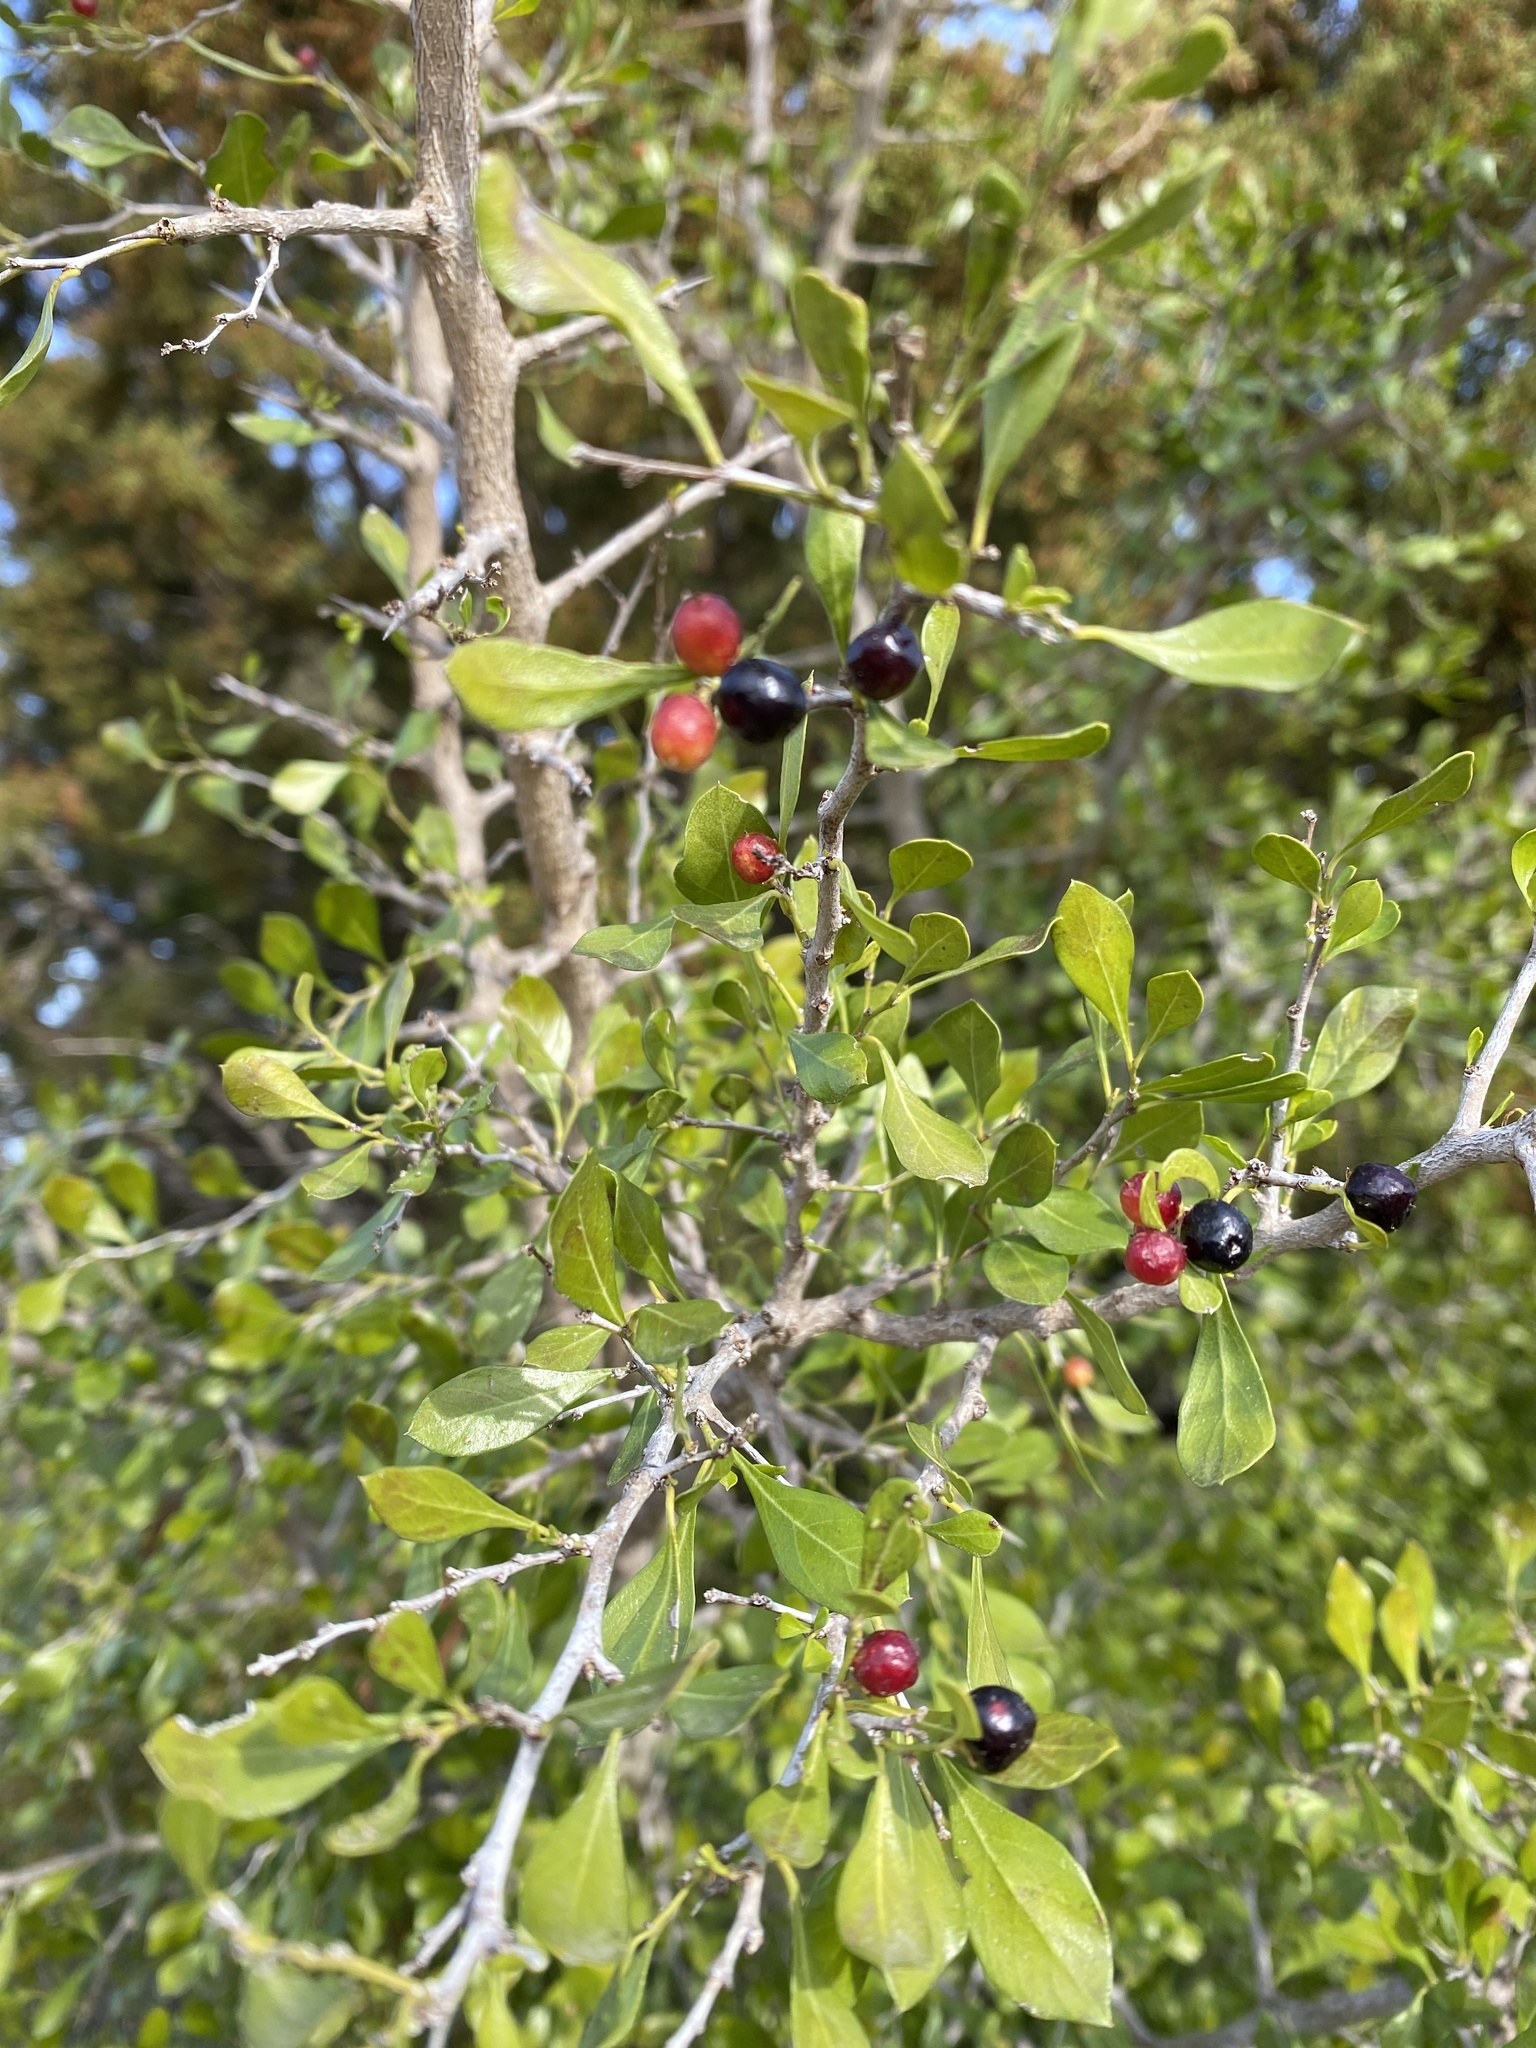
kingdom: Plantae
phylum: Tracheophyta
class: Magnoliopsida
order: Rosales
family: Rhamnaceae
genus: Condalia
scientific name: Condalia hookeri
